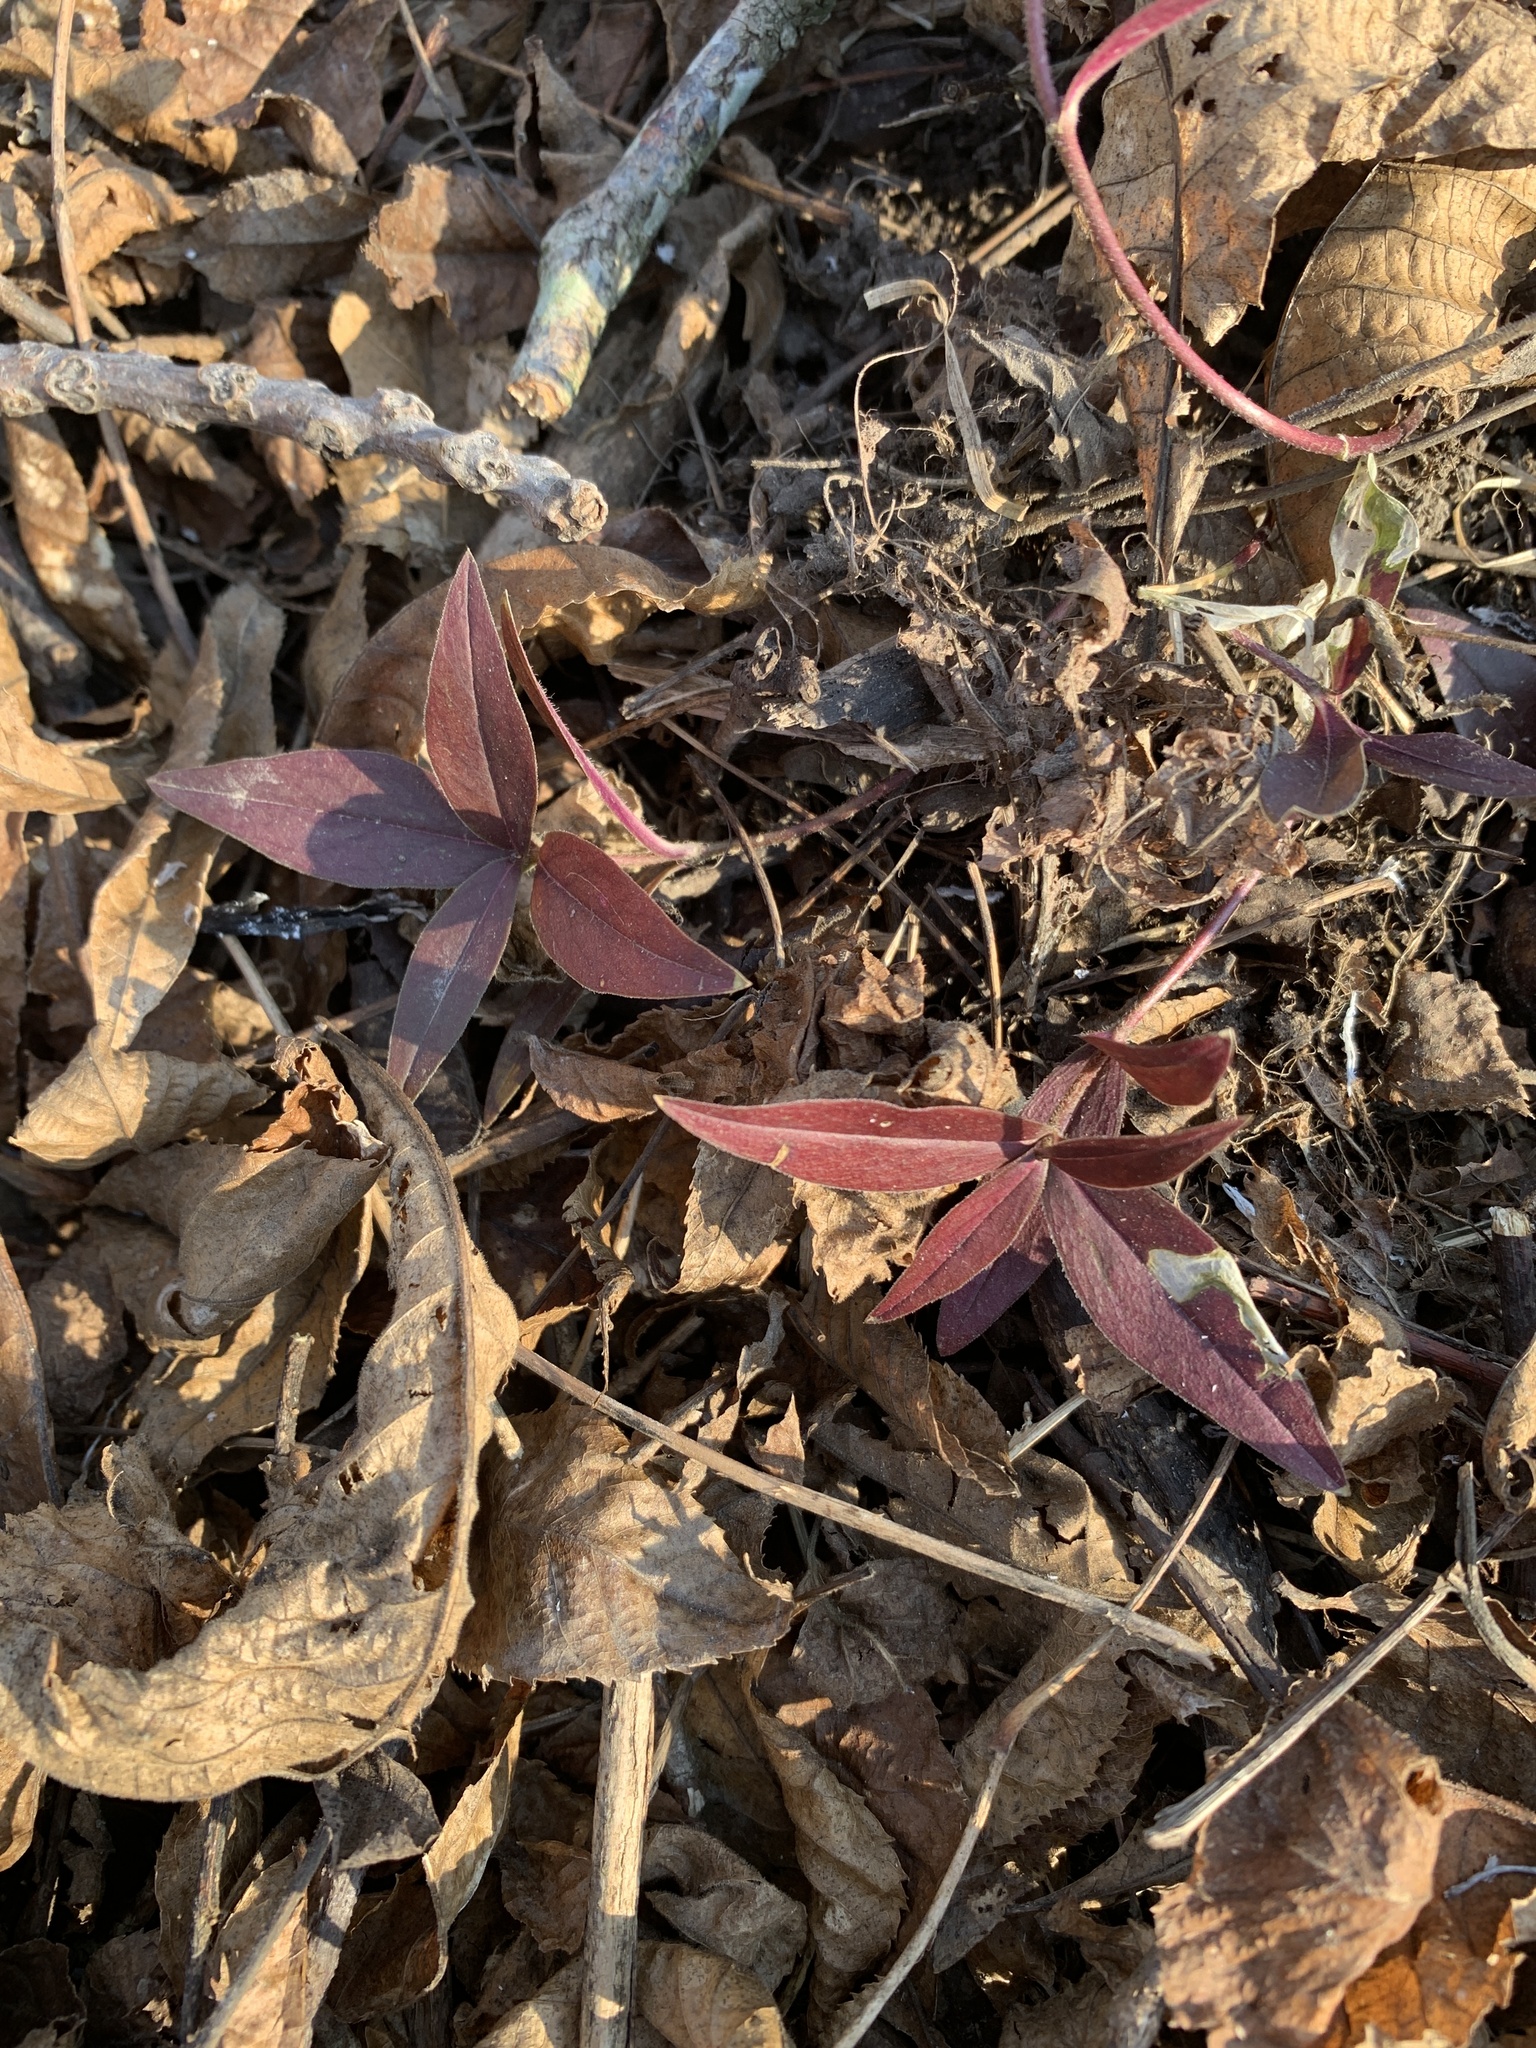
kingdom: Plantae
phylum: Tracheophyta
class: Magnoliopsida
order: Ericales
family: Polemoniaceae
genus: Phlox
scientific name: Phlox divaricata
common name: Blue phlox
